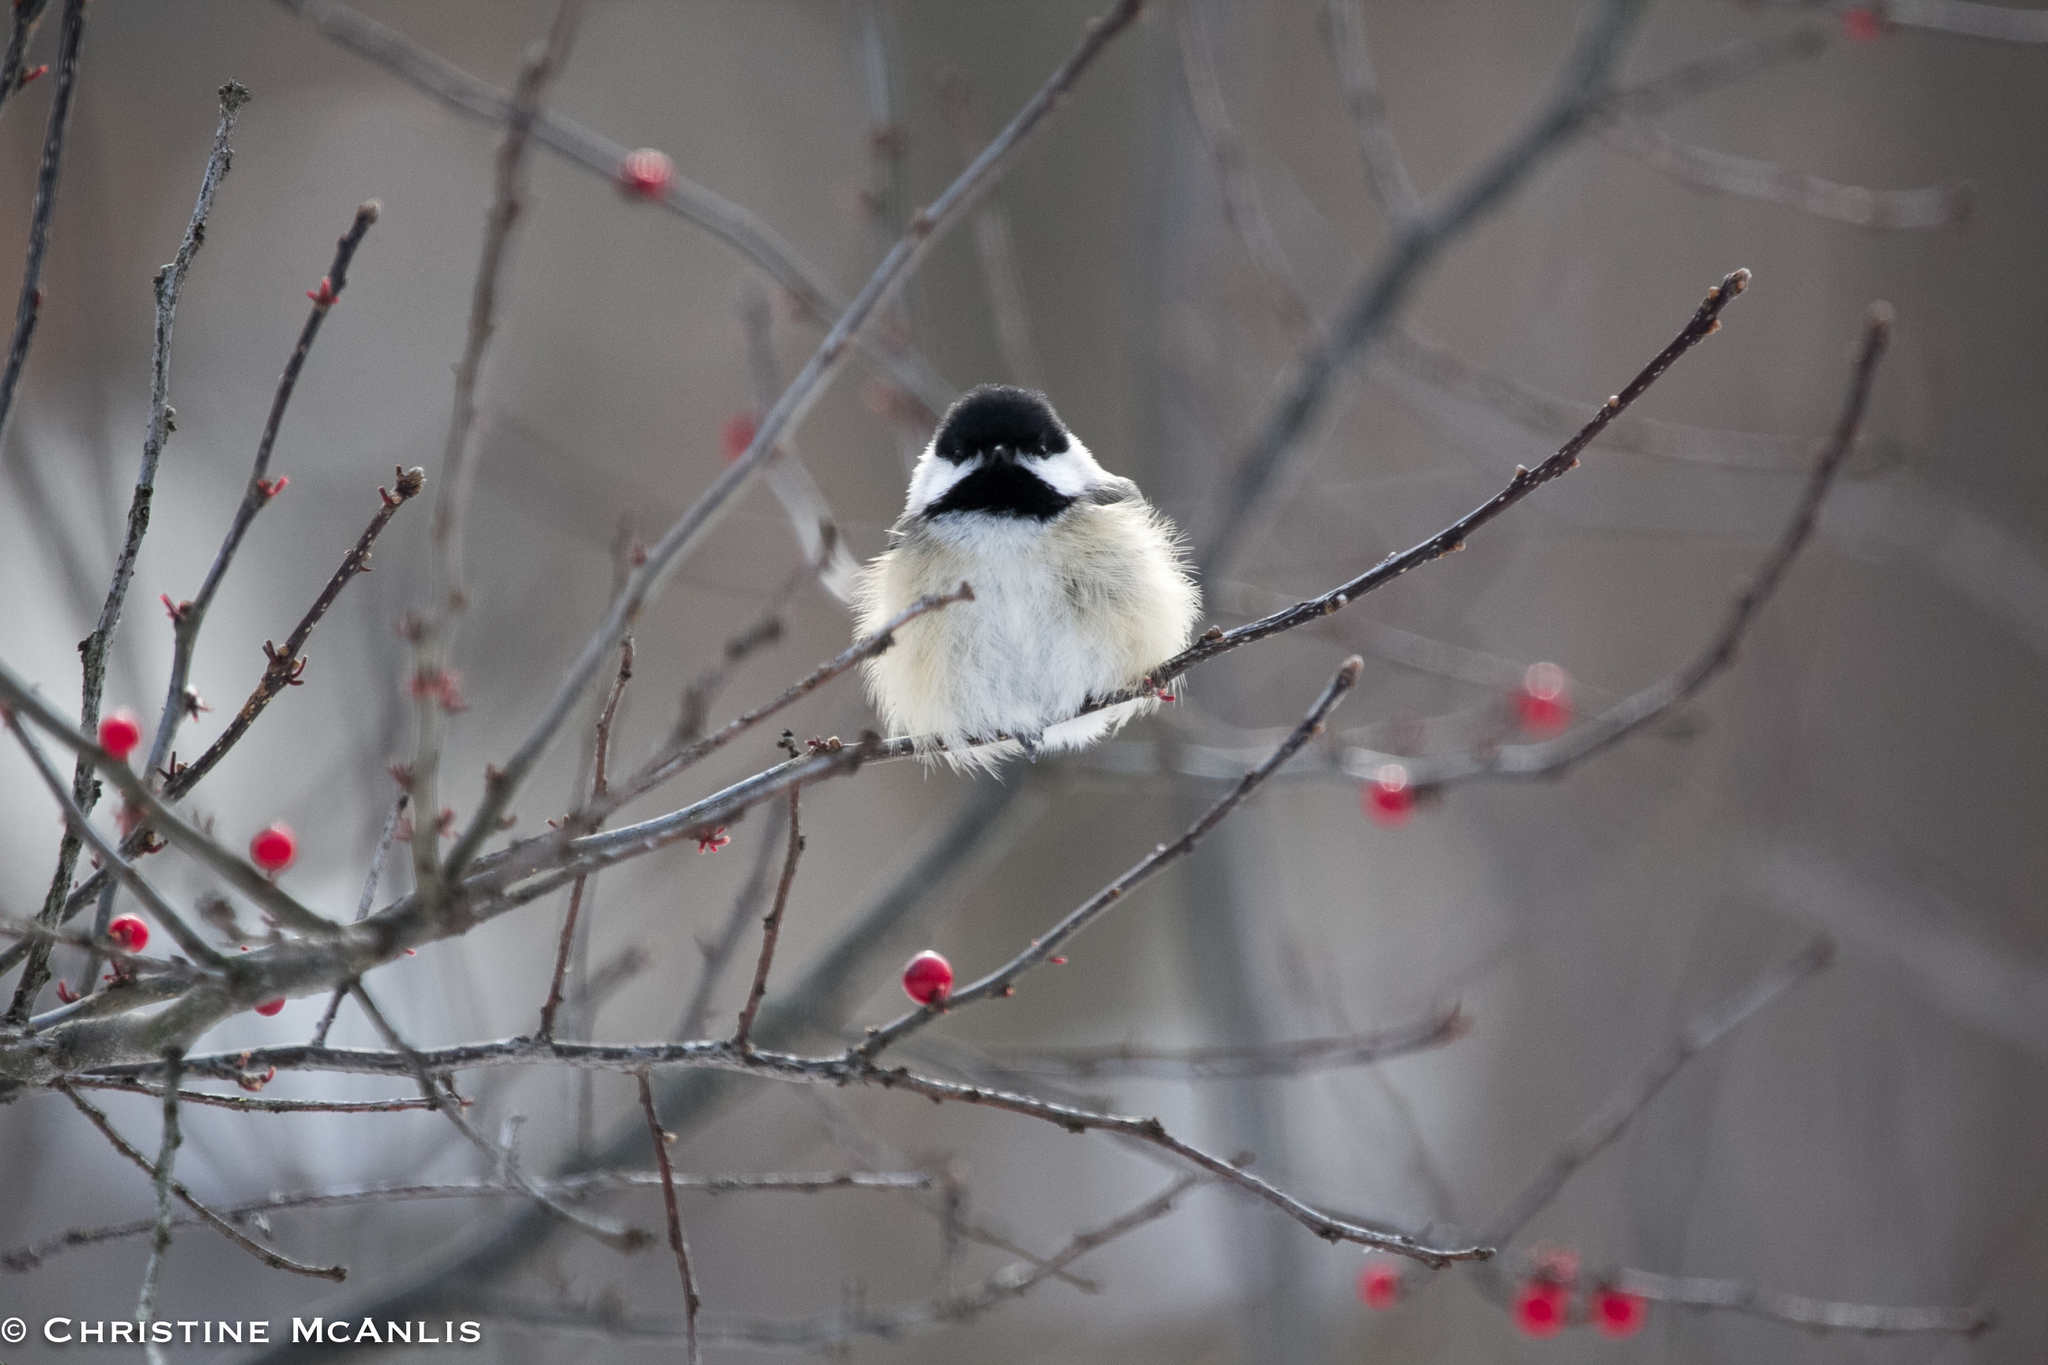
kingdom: Animalia
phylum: Chordata
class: Aves
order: Passeriformes
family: Paridae
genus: Poecile
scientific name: Poecile atricapillus
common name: Black-capped chickadee
